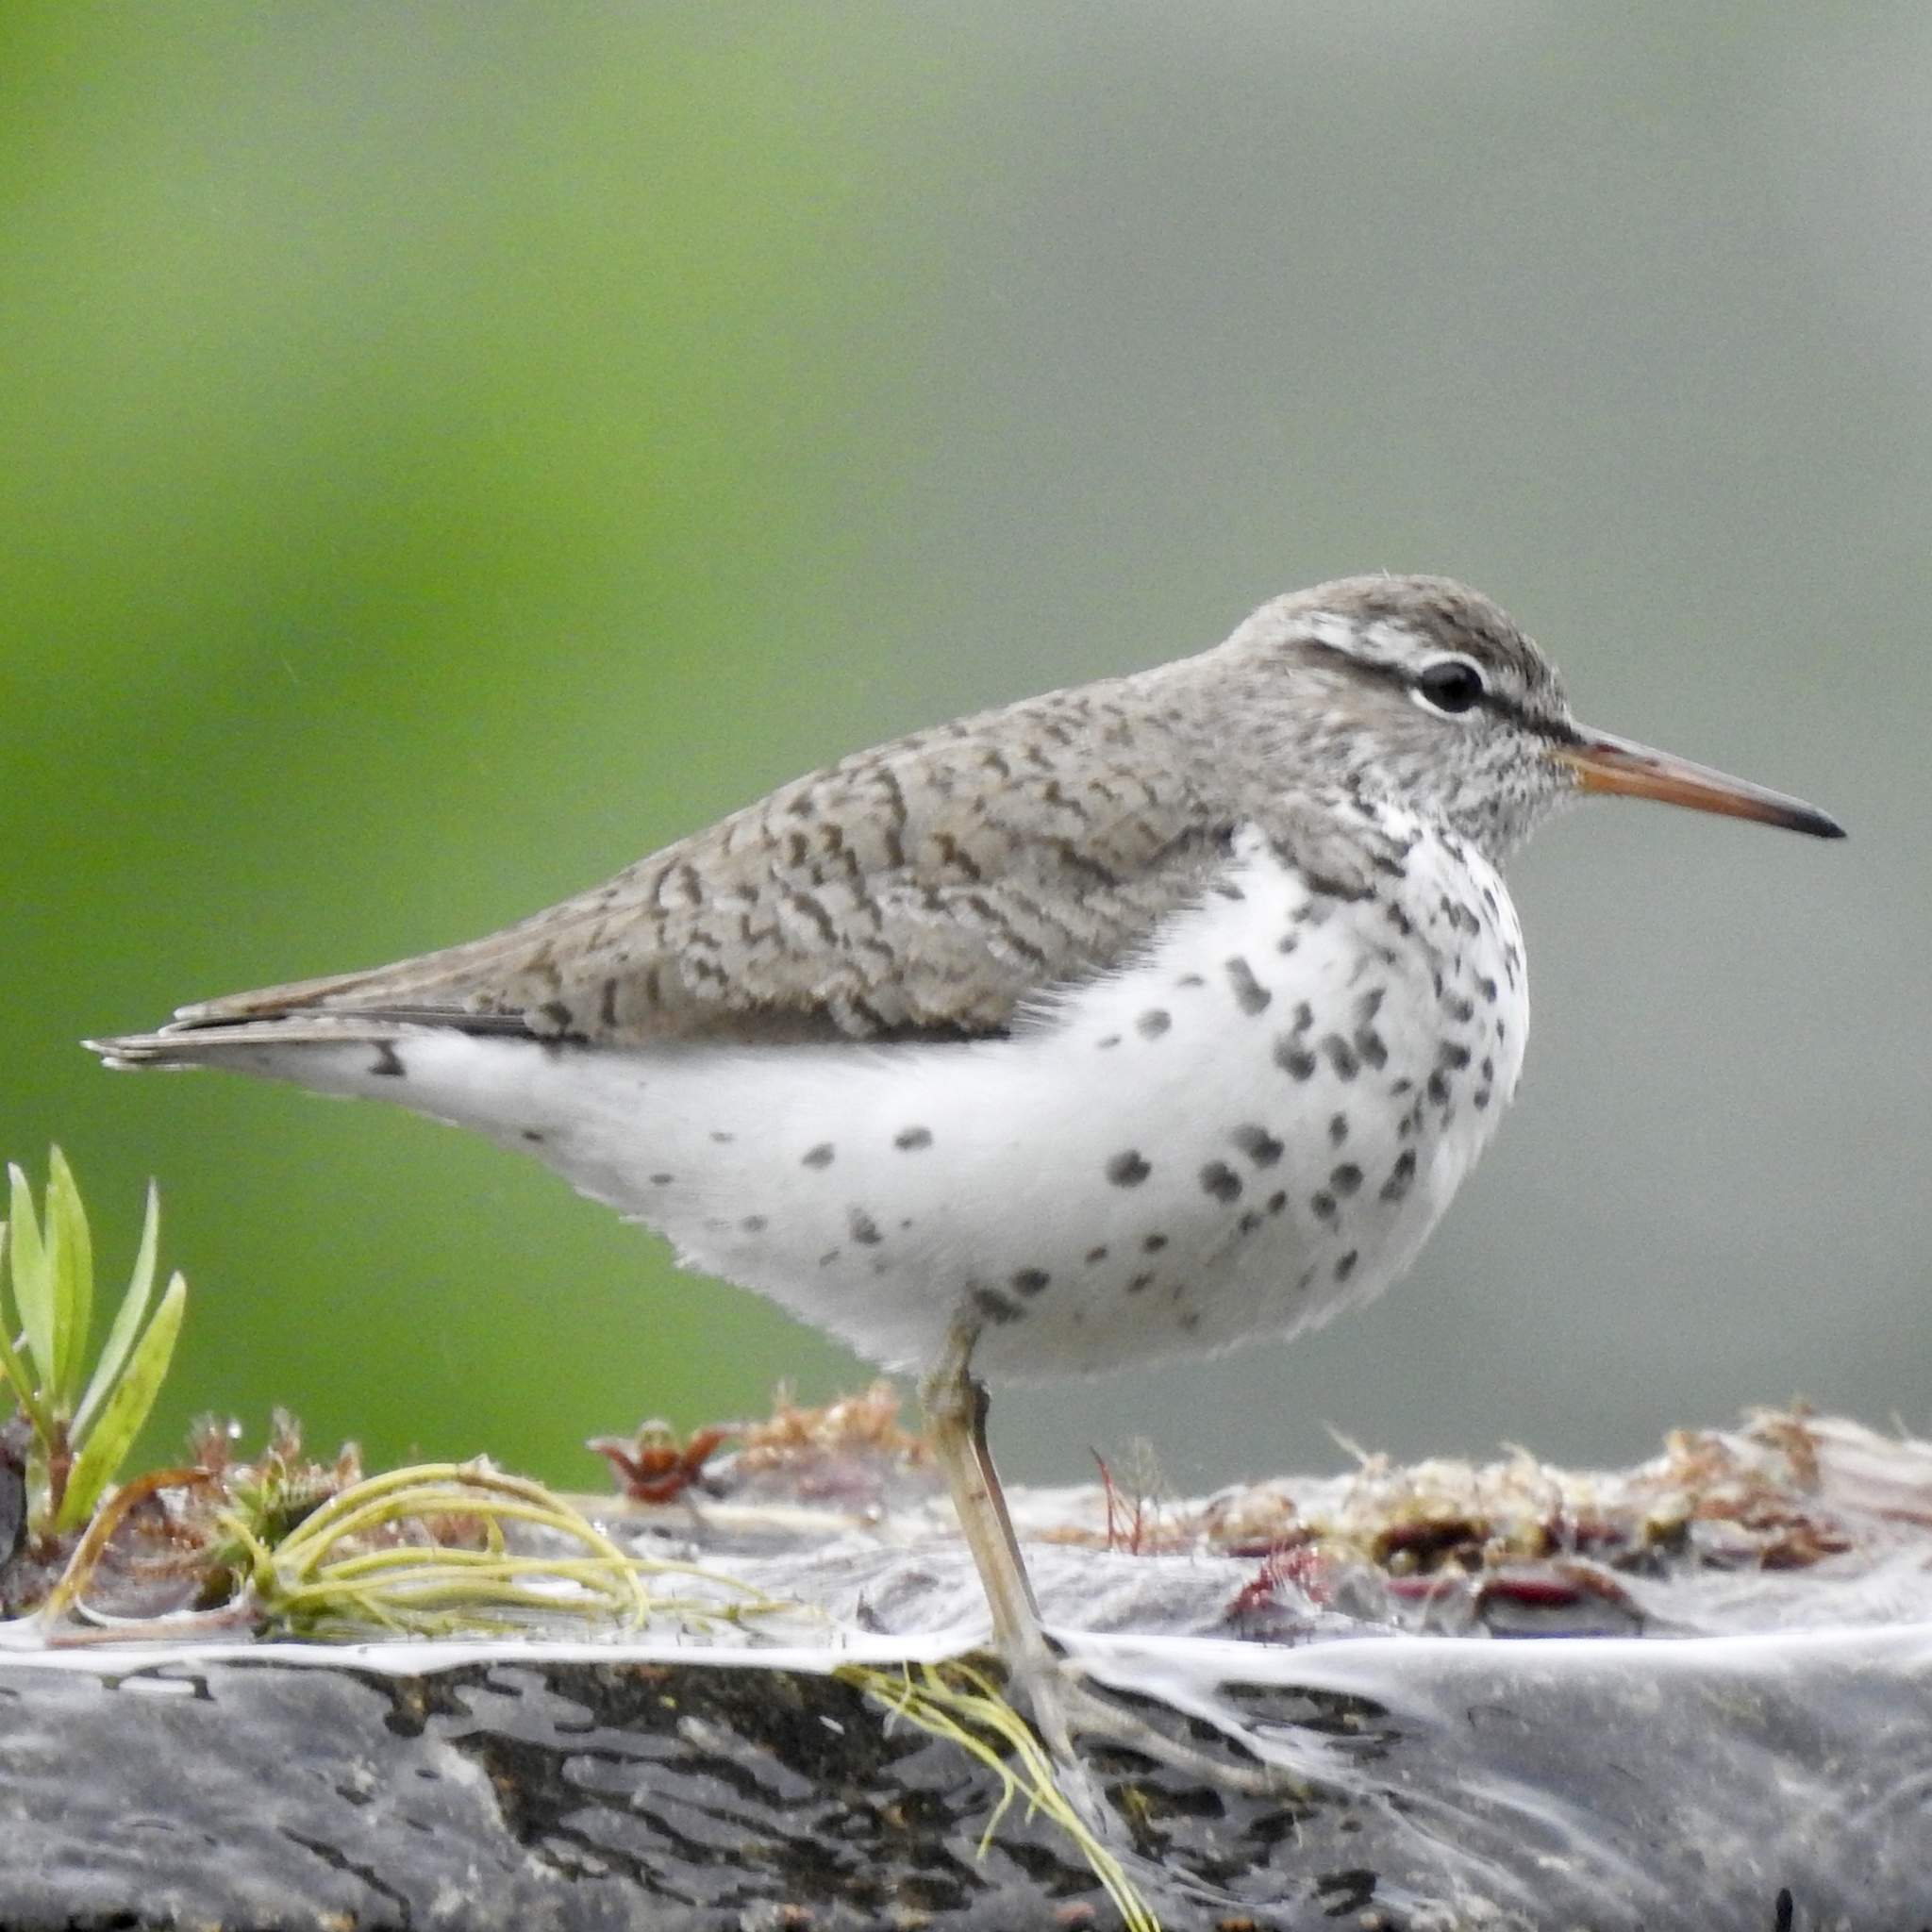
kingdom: Animalia
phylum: Chordata
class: Aves
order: Charadriiformes
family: Scolopacidae
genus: Actitis
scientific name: Actitis macularius
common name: Spotted sandpiper
